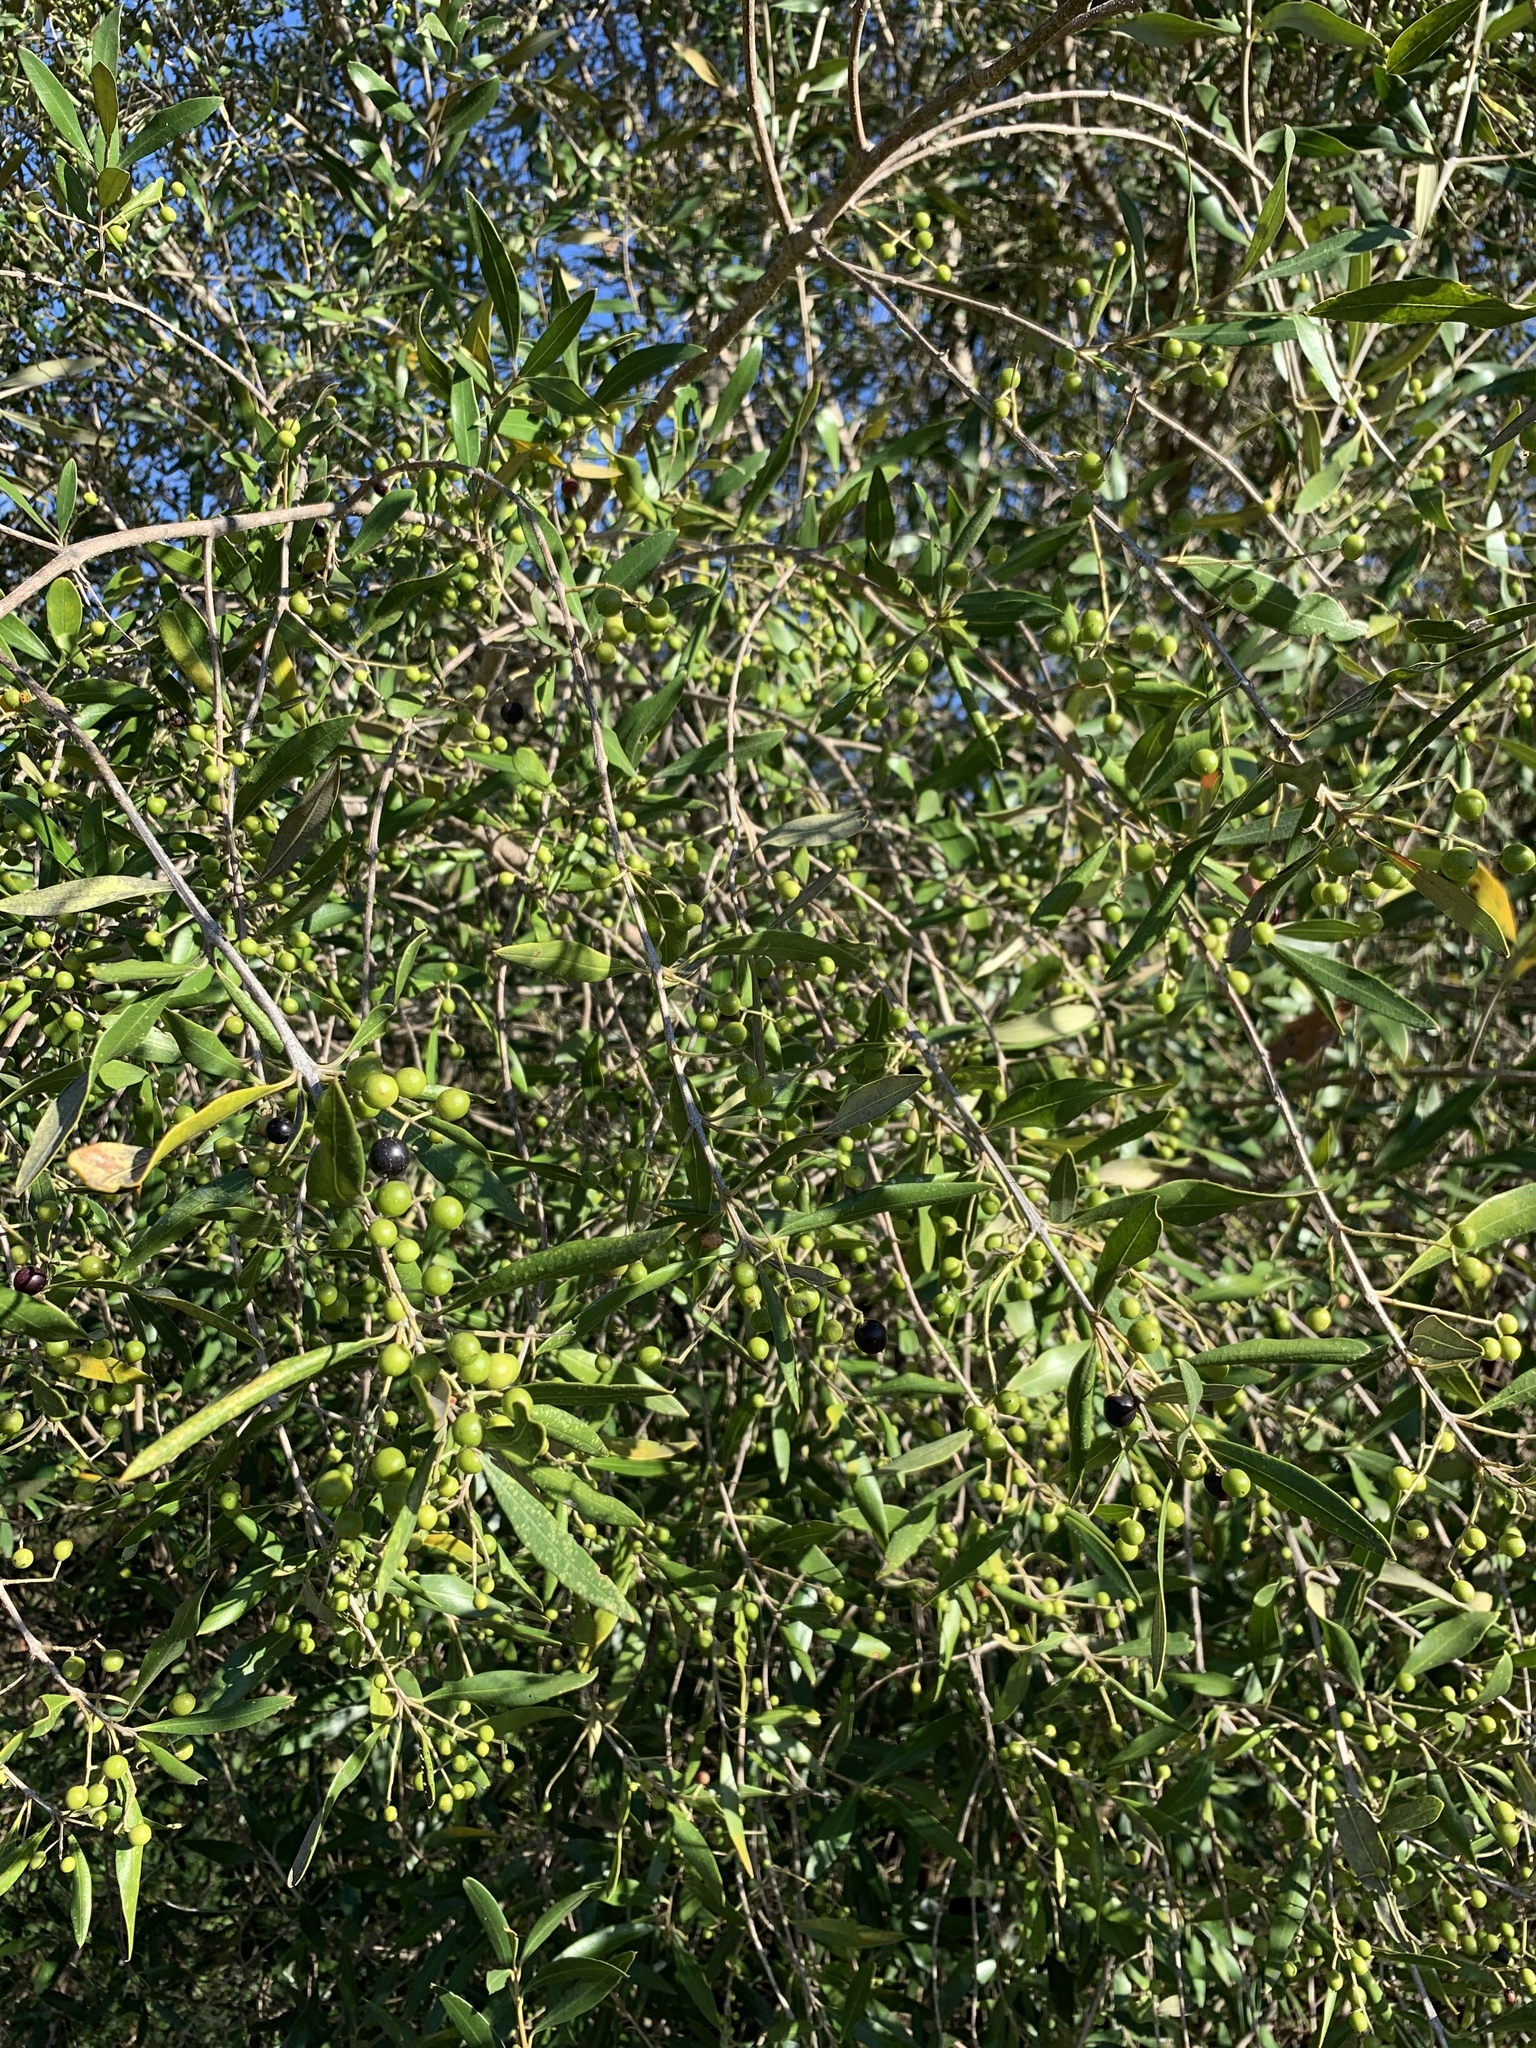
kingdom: Plantae
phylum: Tracheophyta
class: Magnoliopsida
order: Lamiales
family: Oleaceae
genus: Olea
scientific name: Olea europaea
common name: Olive
